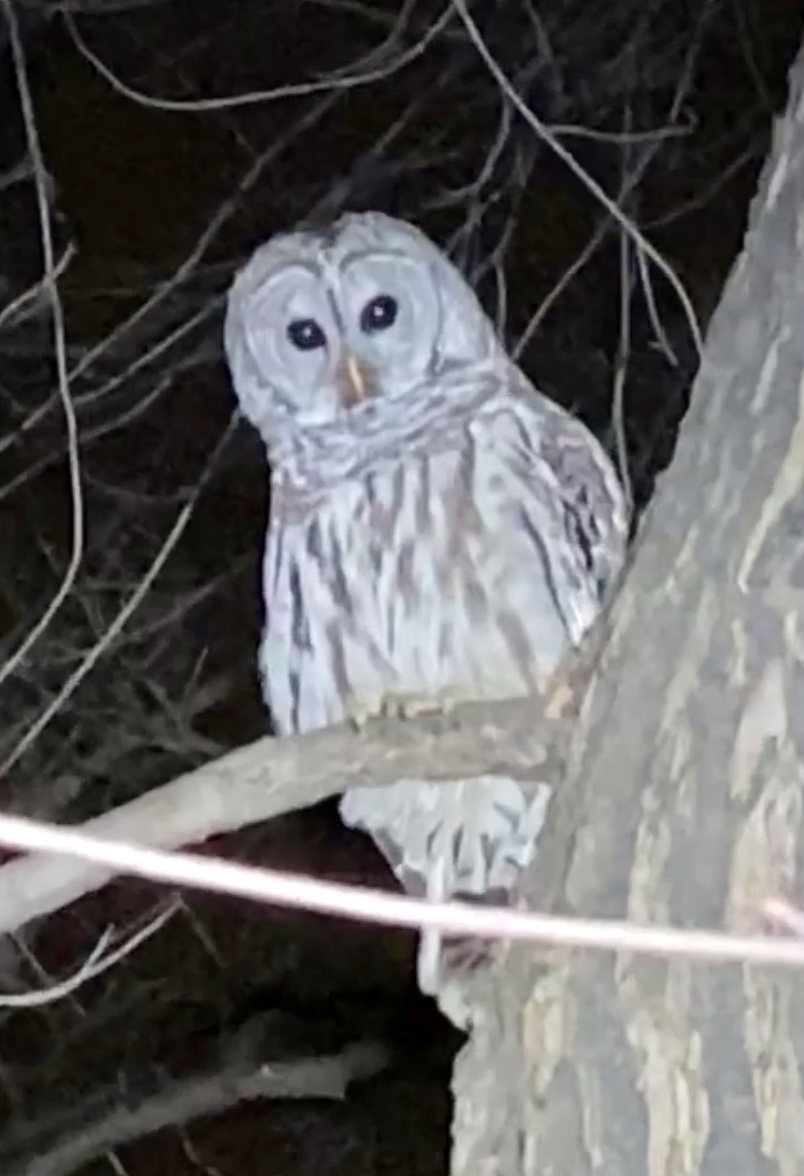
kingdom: Animalia
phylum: Chordata
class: Aves
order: Strigiformes
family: Strigidae
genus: Strix
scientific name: Strix varia
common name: Barred owl
